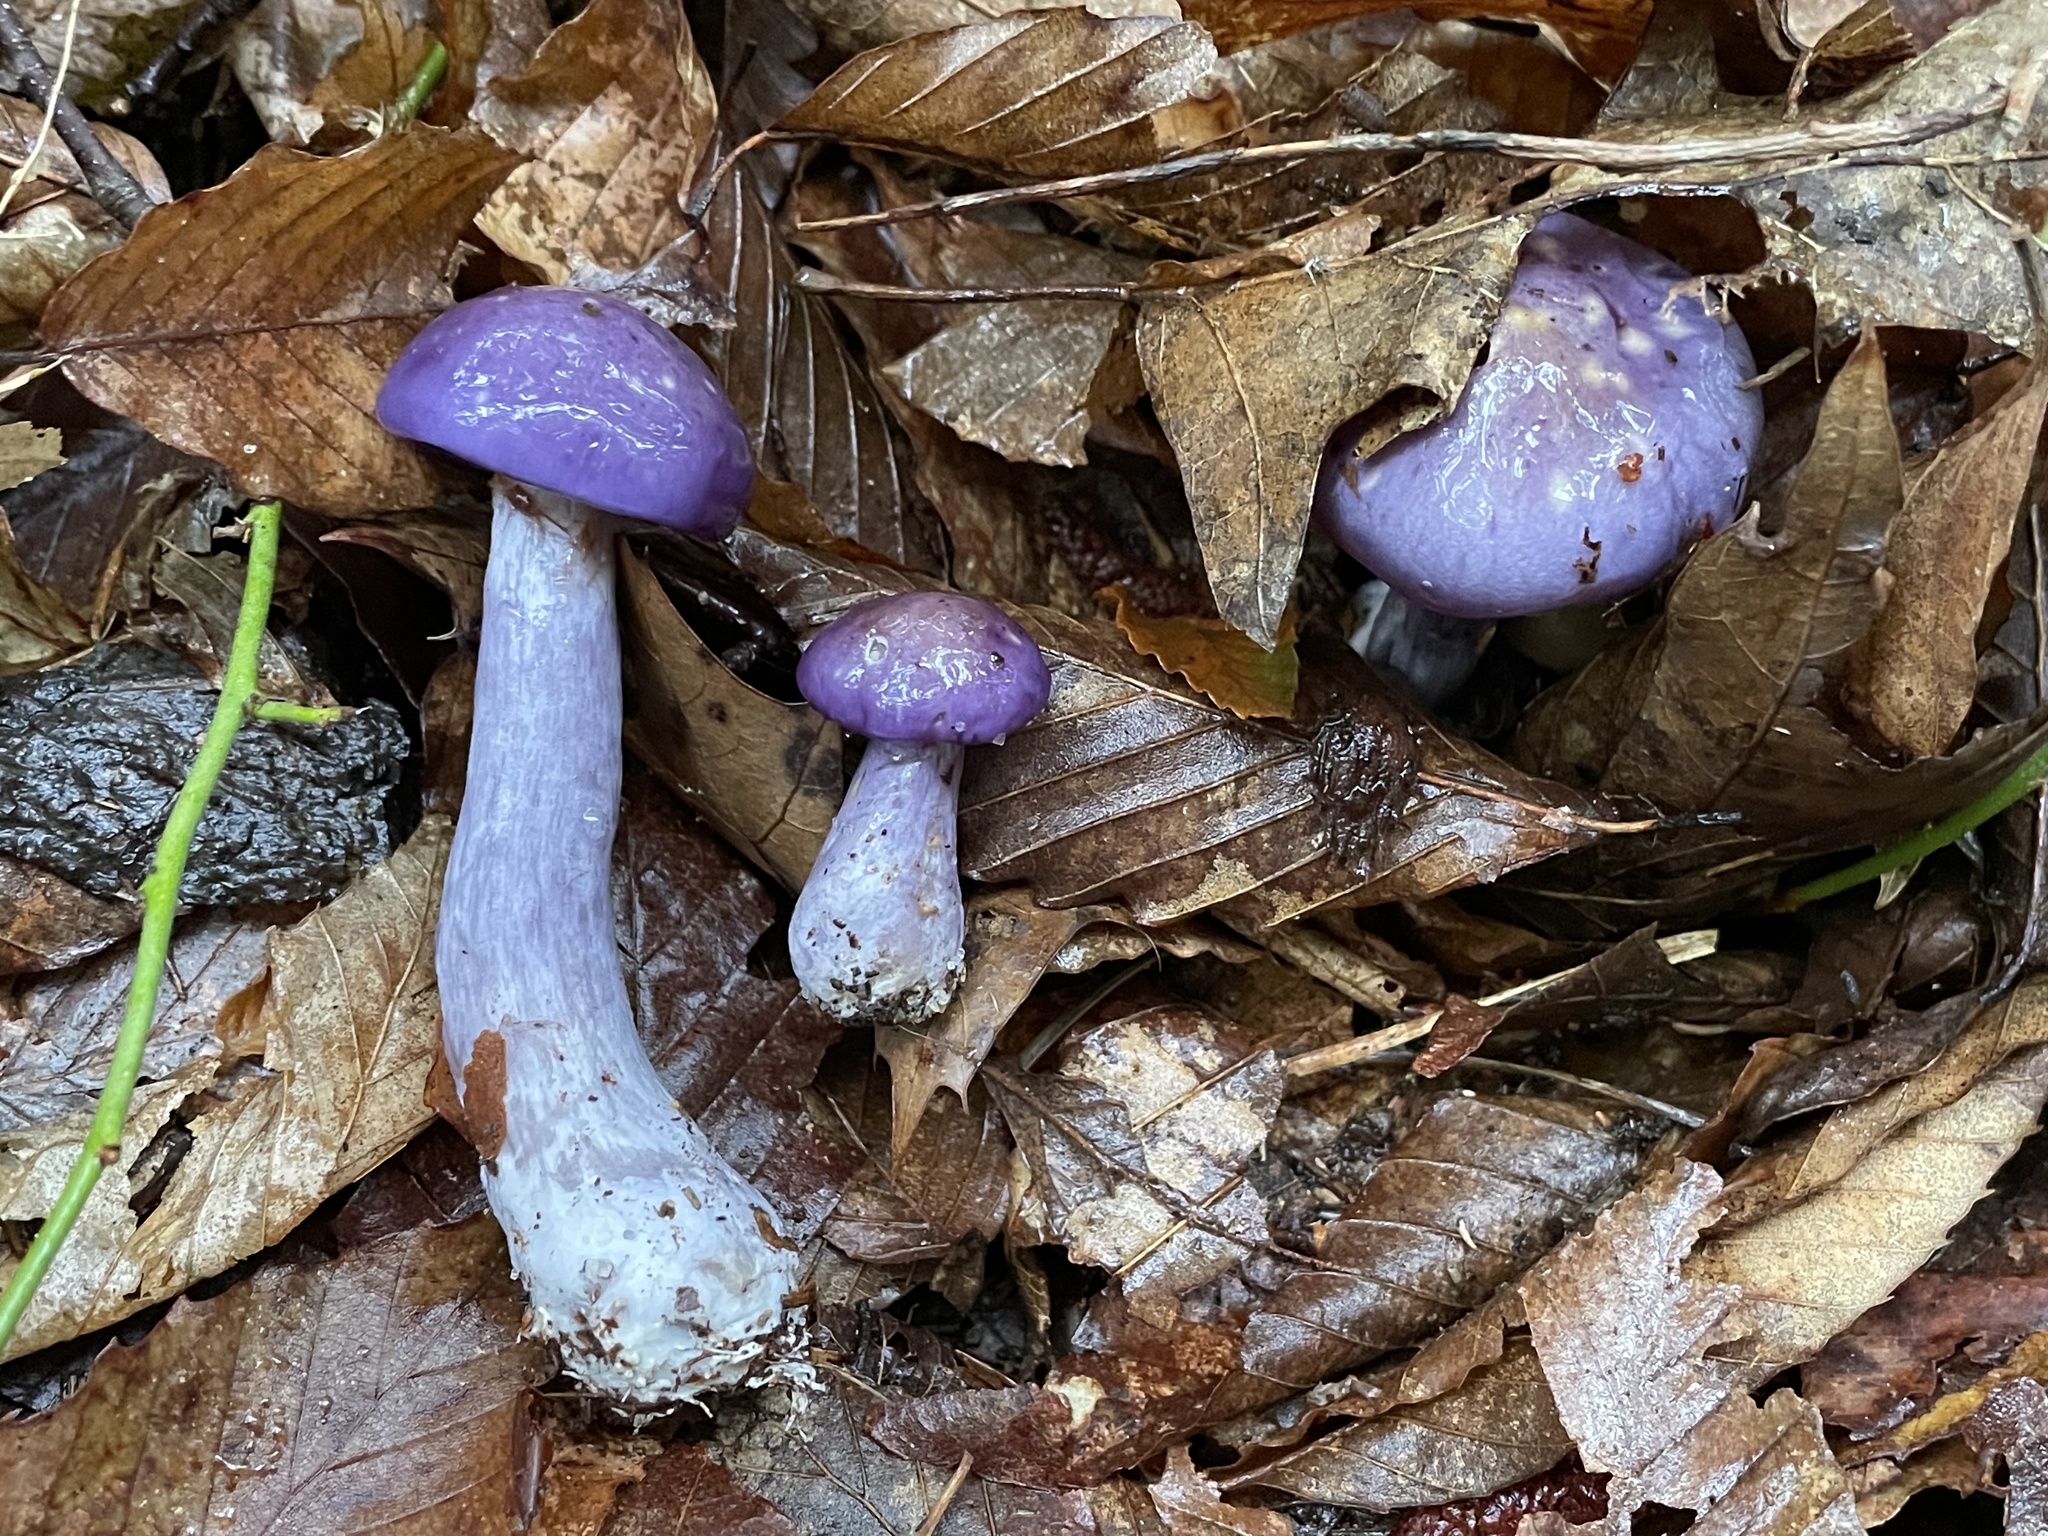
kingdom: Fungi
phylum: Basidiomycota
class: Agaricomycetes
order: Agaricales
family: Cortinariaceae
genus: Cortinarius
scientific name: Cortinarius iodes
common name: Viscid violet cort
